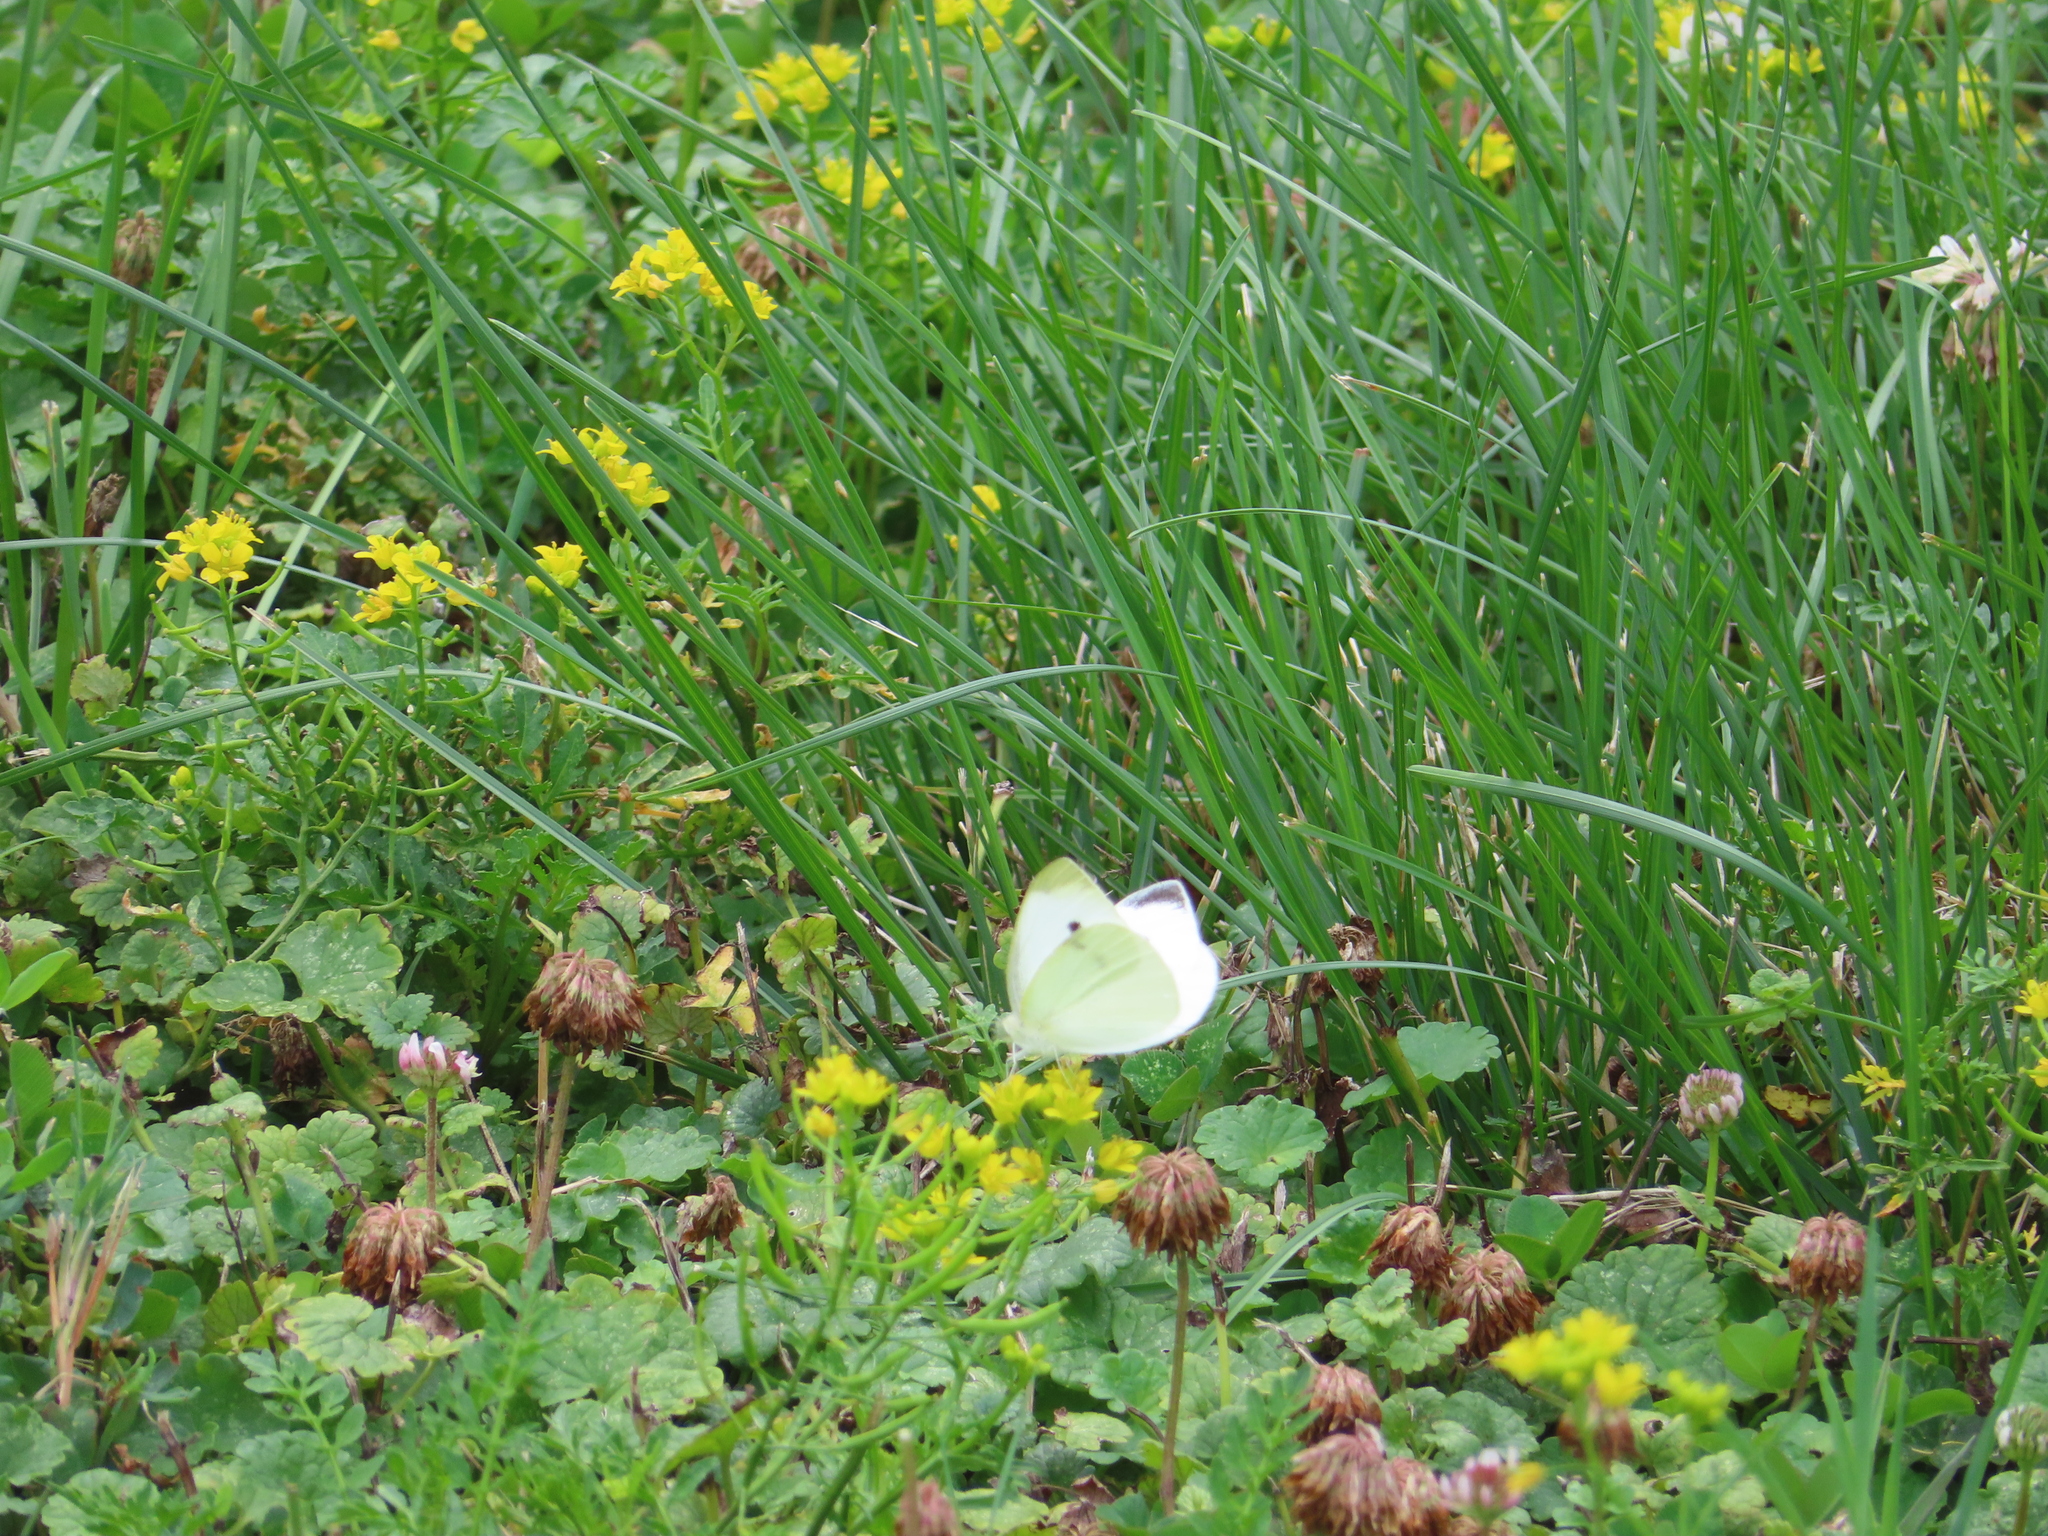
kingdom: Animalia
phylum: Arthropoda
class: Insecta
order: Lepidoptera
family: Pieridae
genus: Pieris
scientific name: Pieris rapae
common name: Small white
